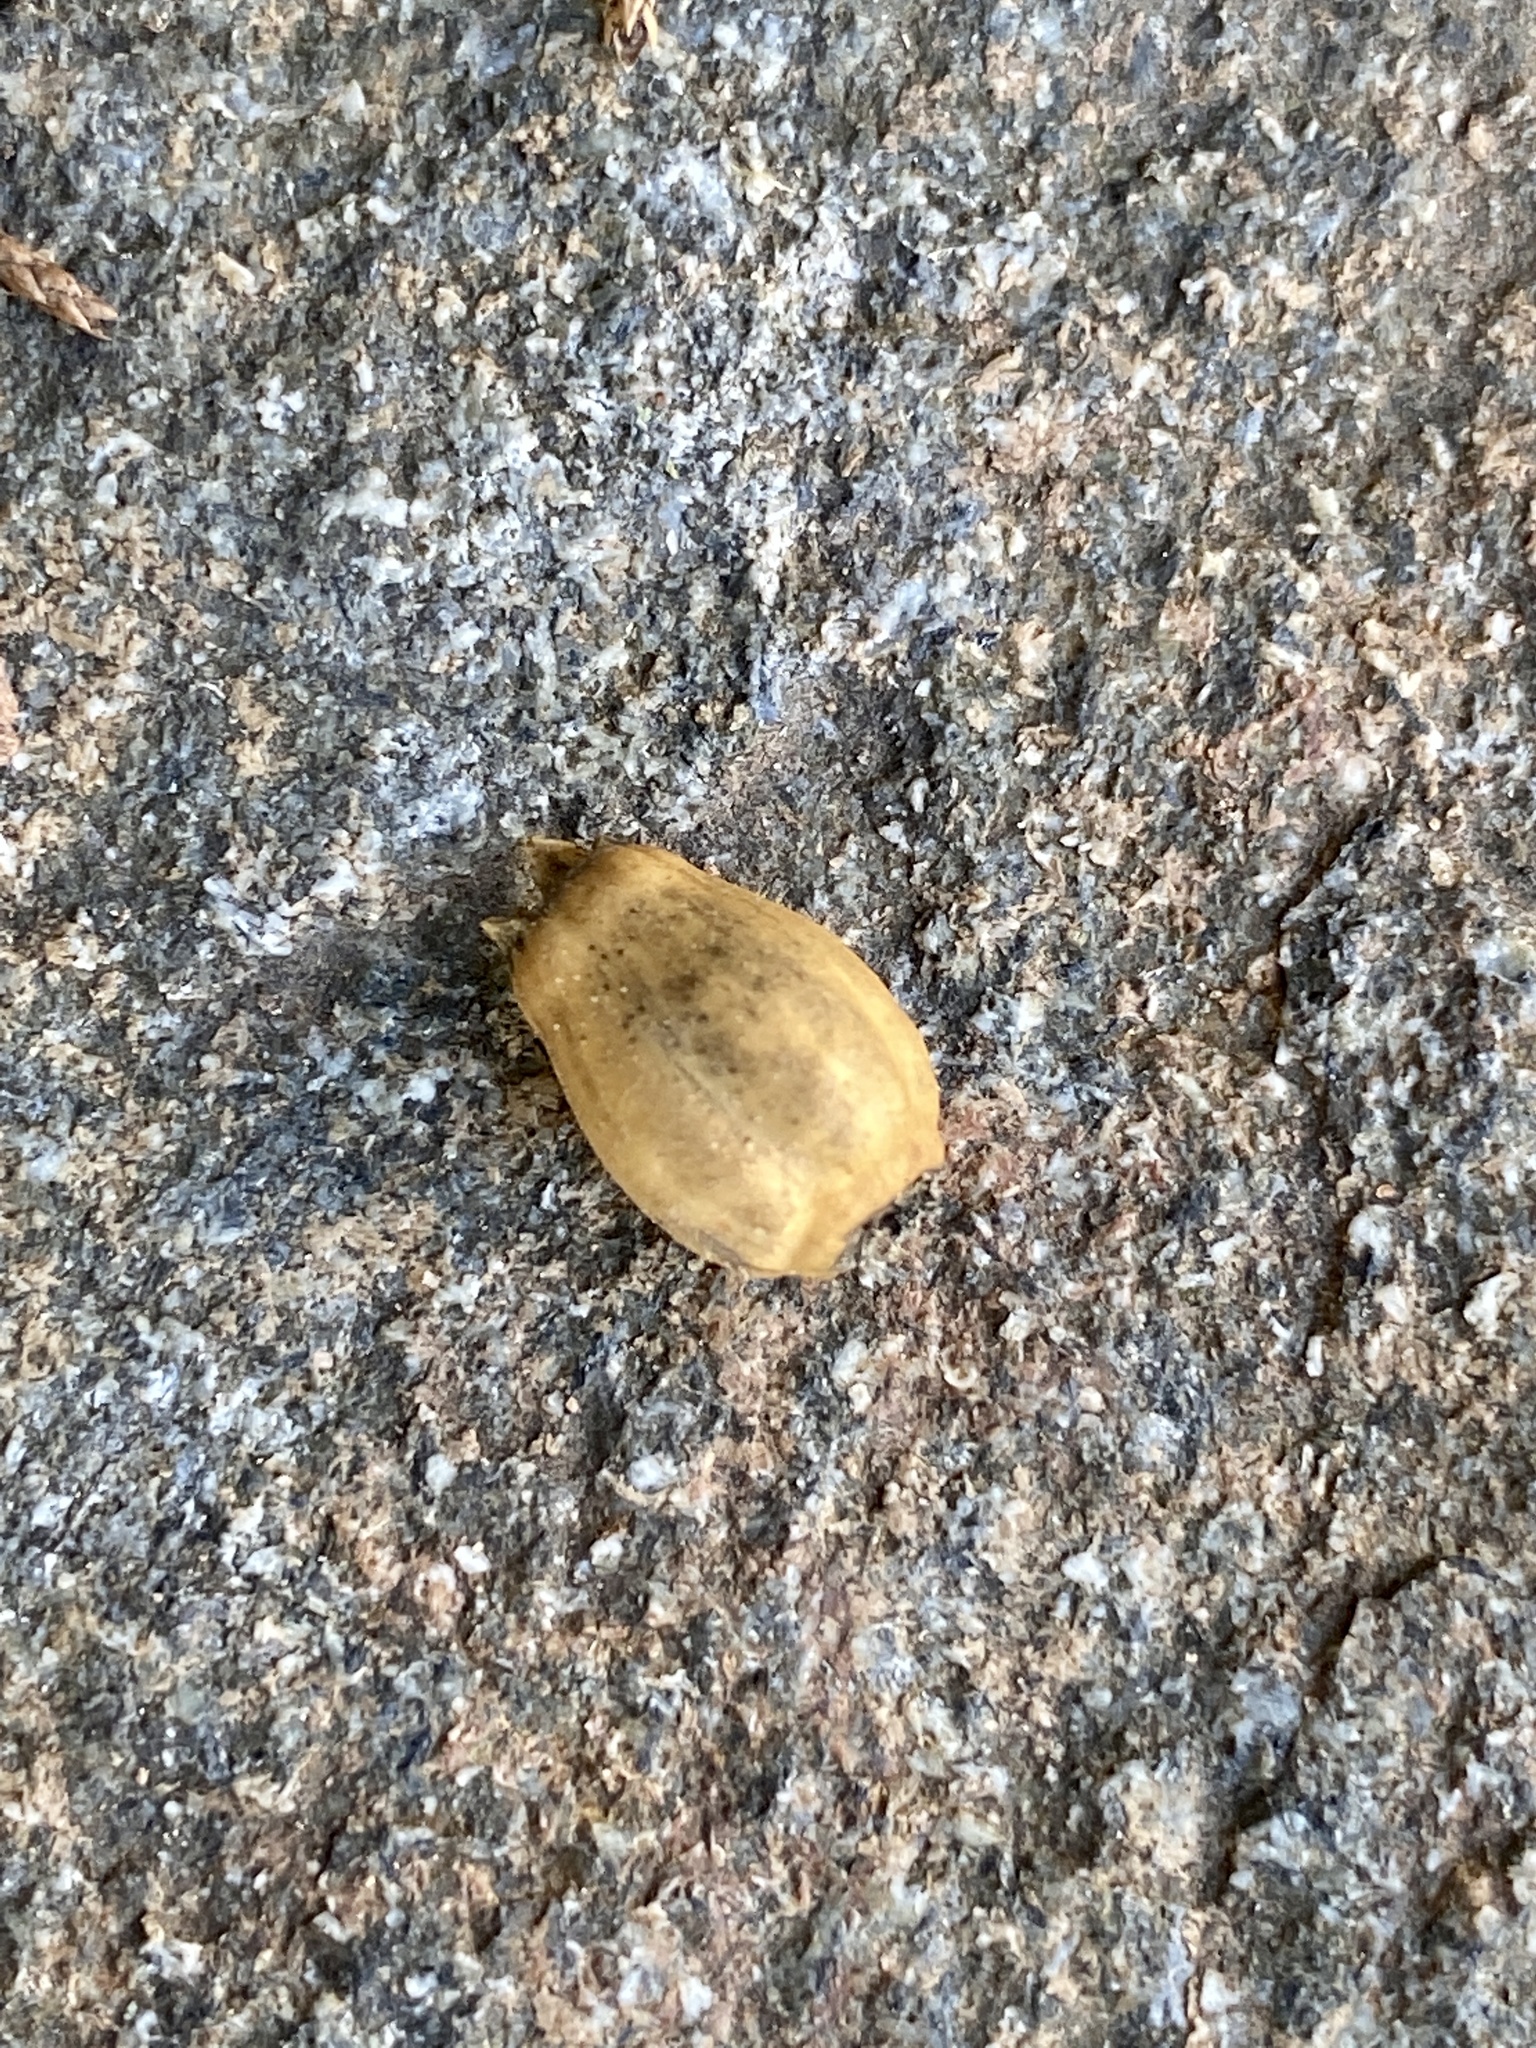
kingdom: Plantae
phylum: Tracheophyta
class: Magnoliopsida
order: Caryophyllales
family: Caryophyllaceae
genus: Silene
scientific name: Silene coronaria
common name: Rose campion
